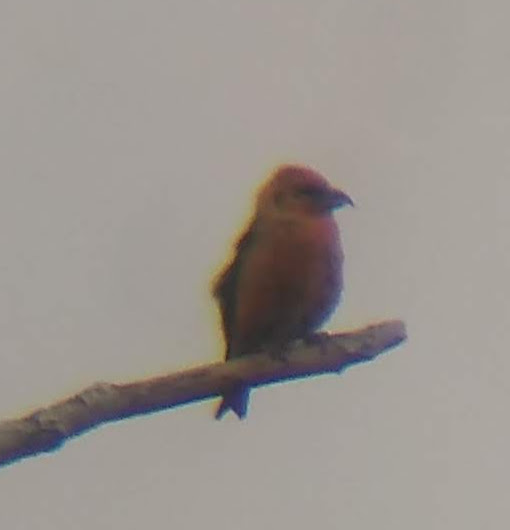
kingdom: Animalia
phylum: Chordata
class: Aves
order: Passeriformes
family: Fringillidae
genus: Loxia
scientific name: Loxia curvirostra
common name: Red crossbill
